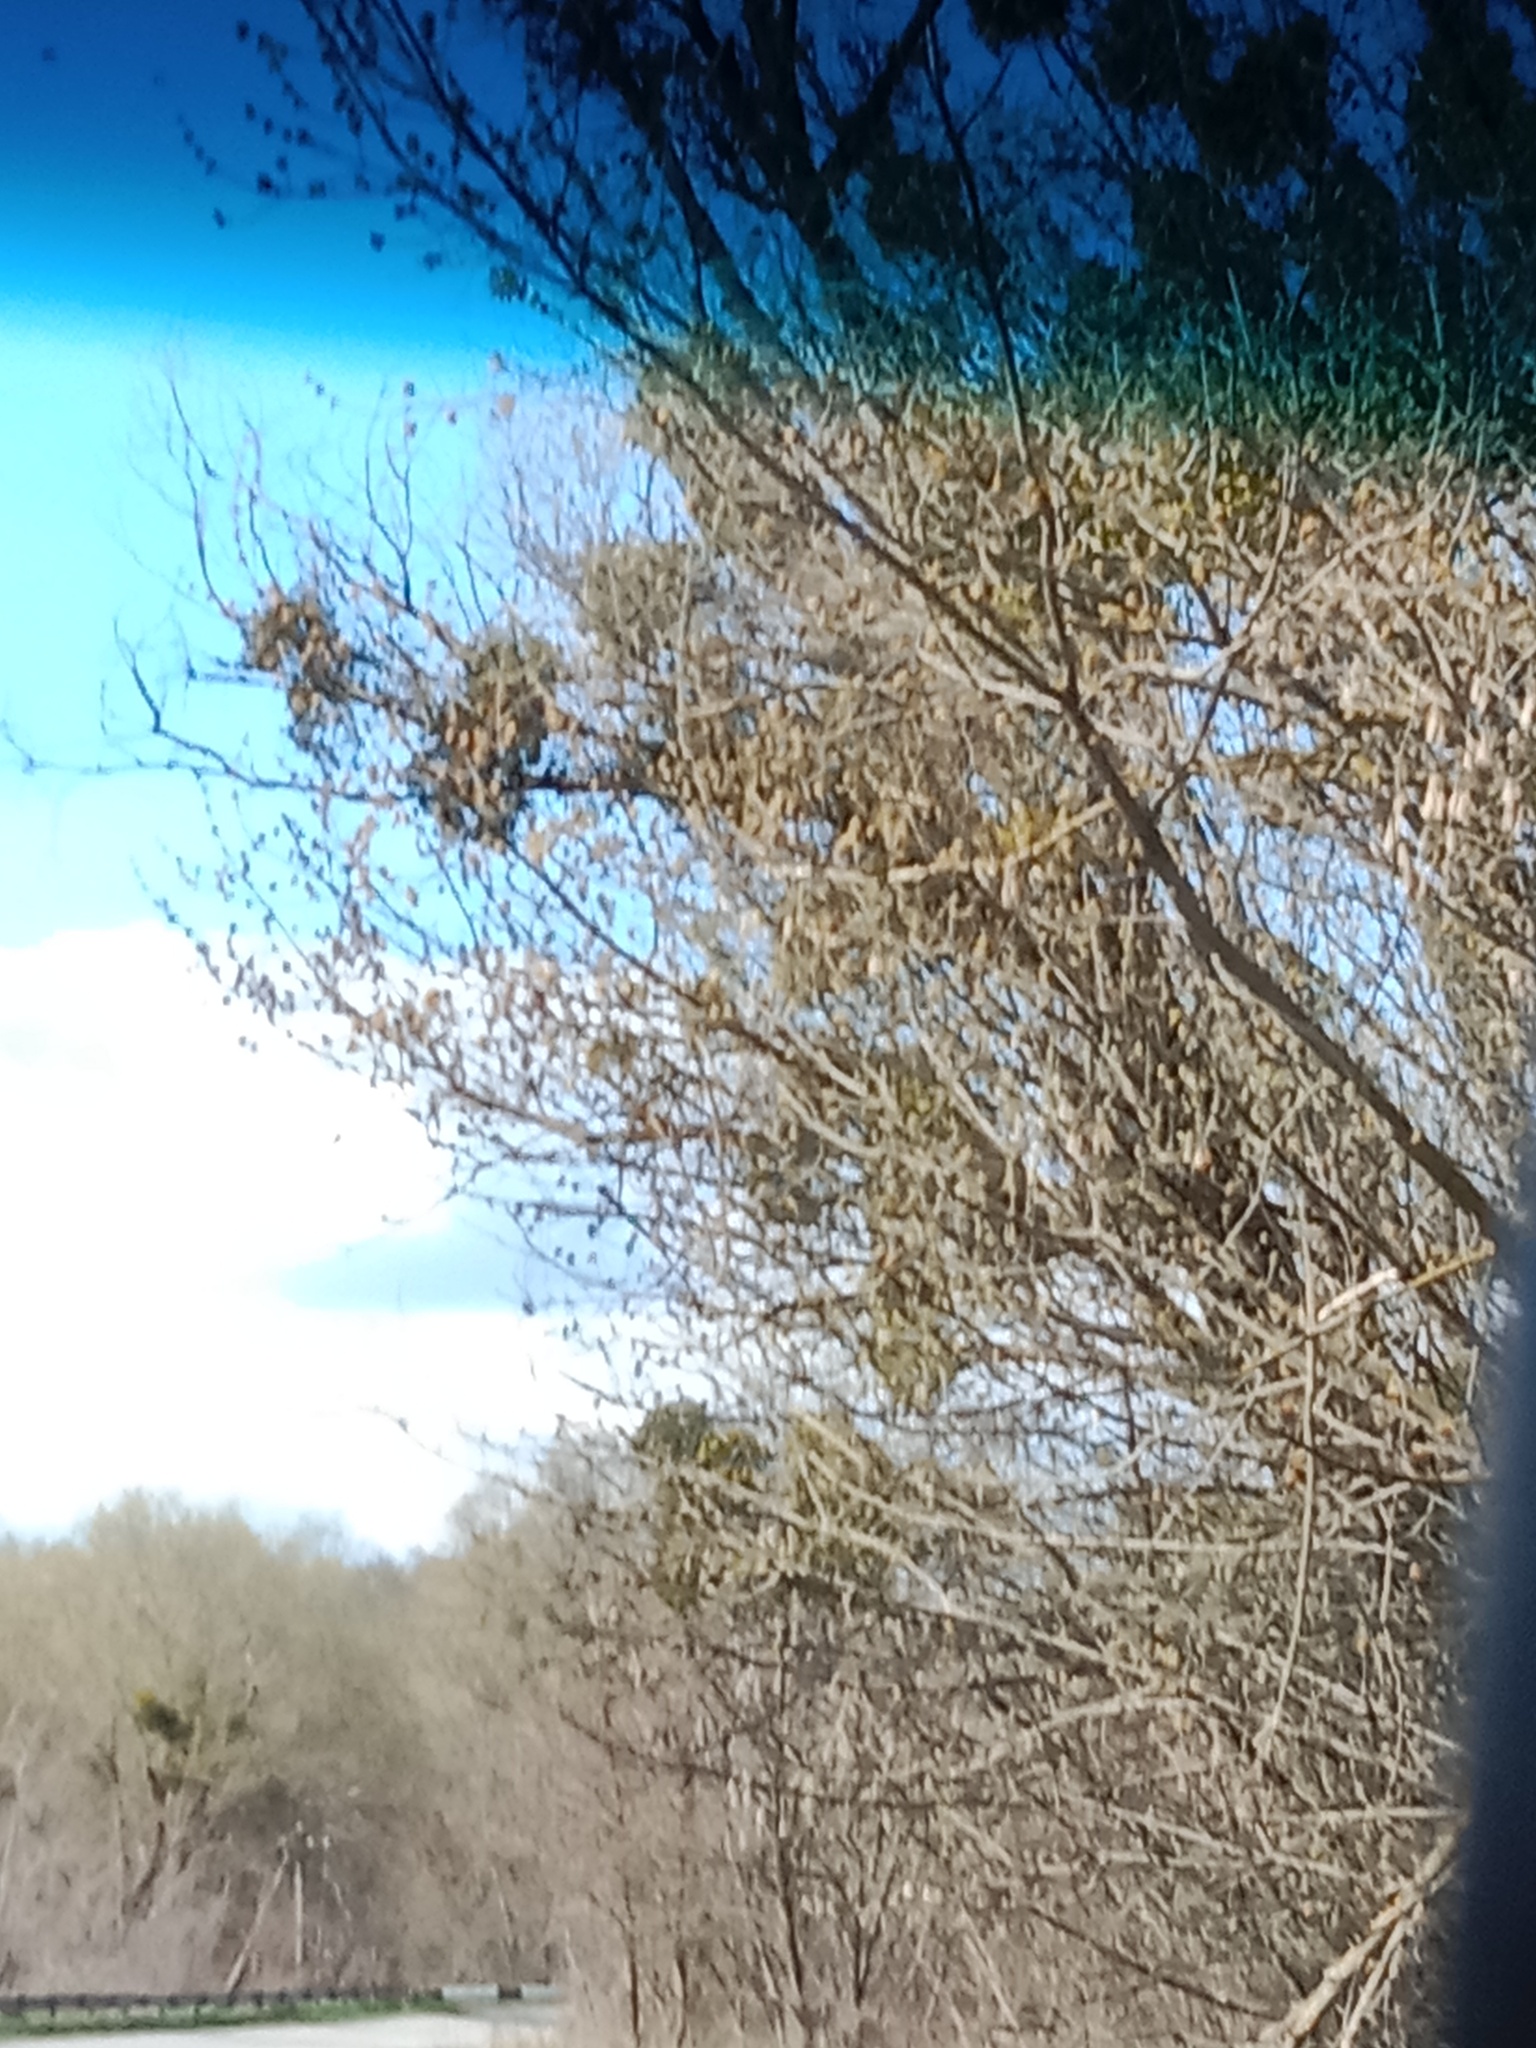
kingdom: Plantae
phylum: Tracheophyta
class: Magnoliopsida
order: Santalales
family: Viscaceae
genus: Viscum
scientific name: Viscum album
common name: Mistletoe
